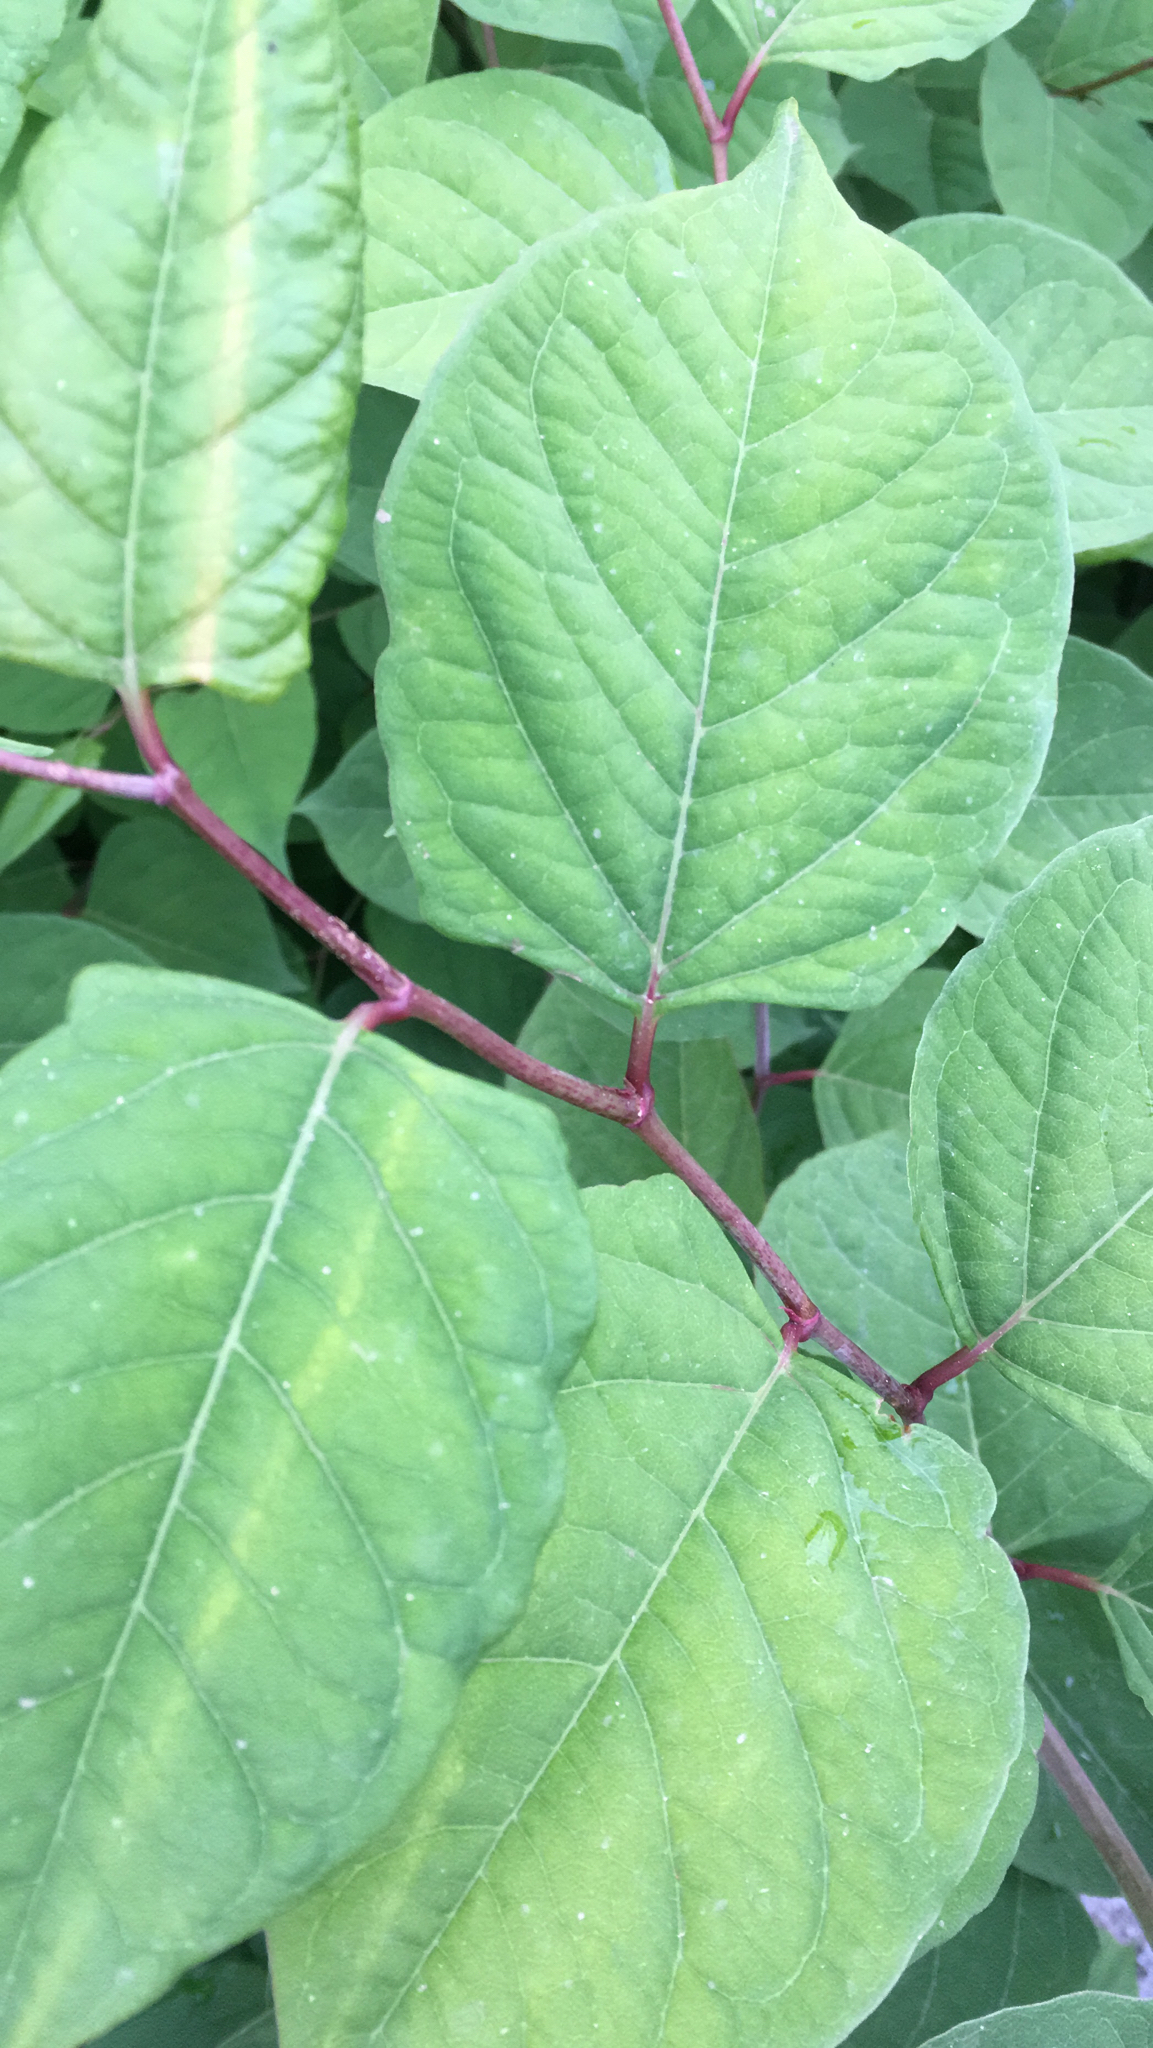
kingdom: Plantae
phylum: Tracheophyta
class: Magnoliopsida
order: Caryophyllales
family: Polygonaceae
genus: Reynoutria
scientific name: Reynoutria japonica
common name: Japanese knotweed
